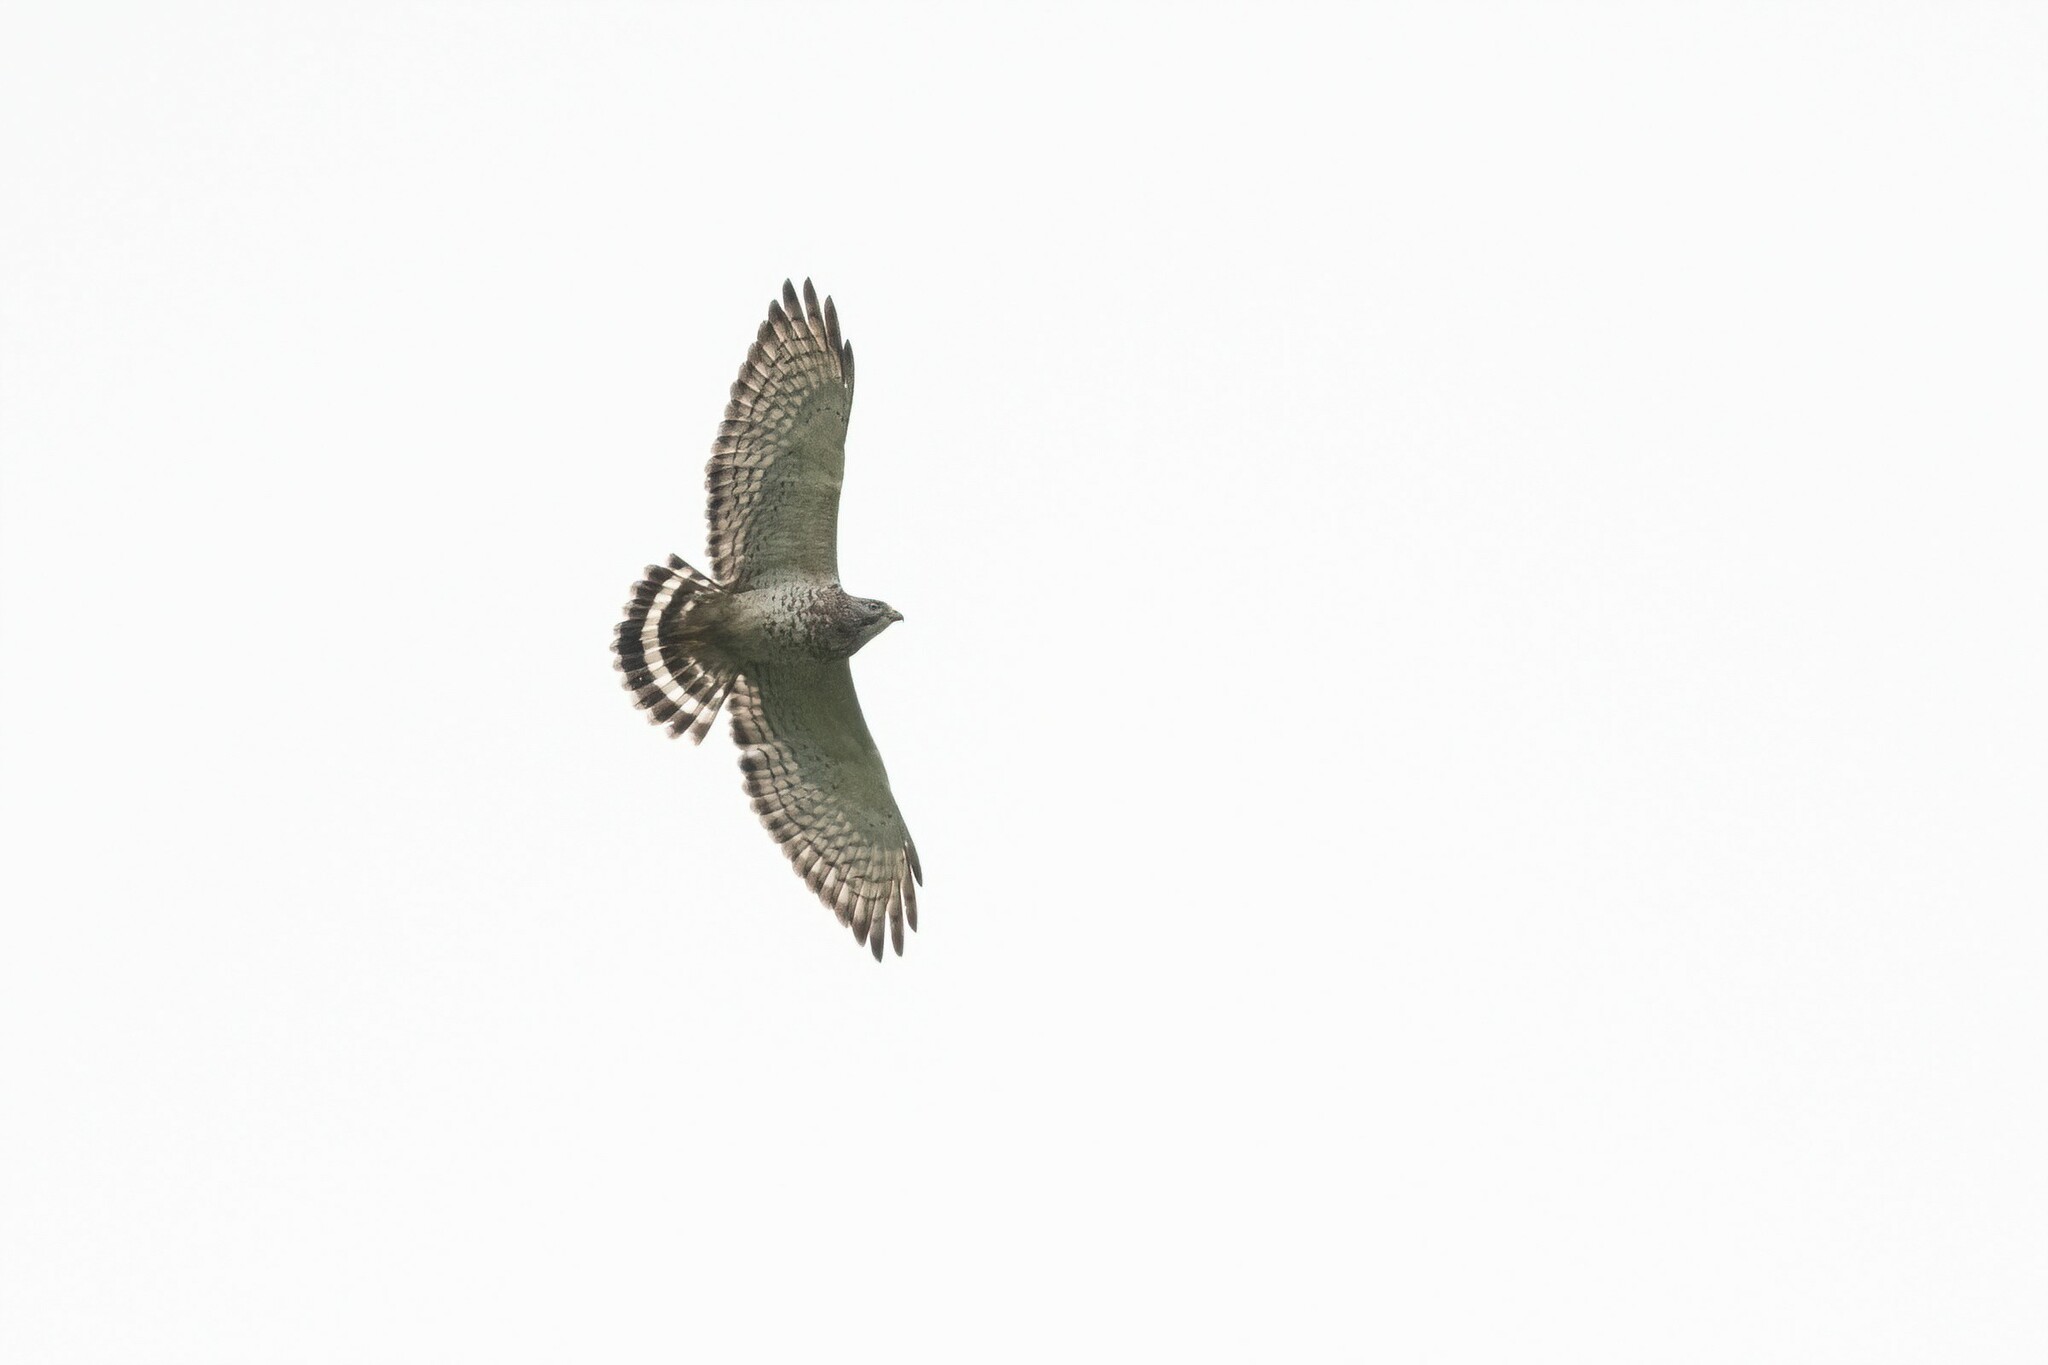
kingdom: Animalia
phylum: Chordata
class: Aves
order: Accipitriformes
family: Accipitridae
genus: Buteo
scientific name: Buteo platypterus
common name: Broad-winged hawk
